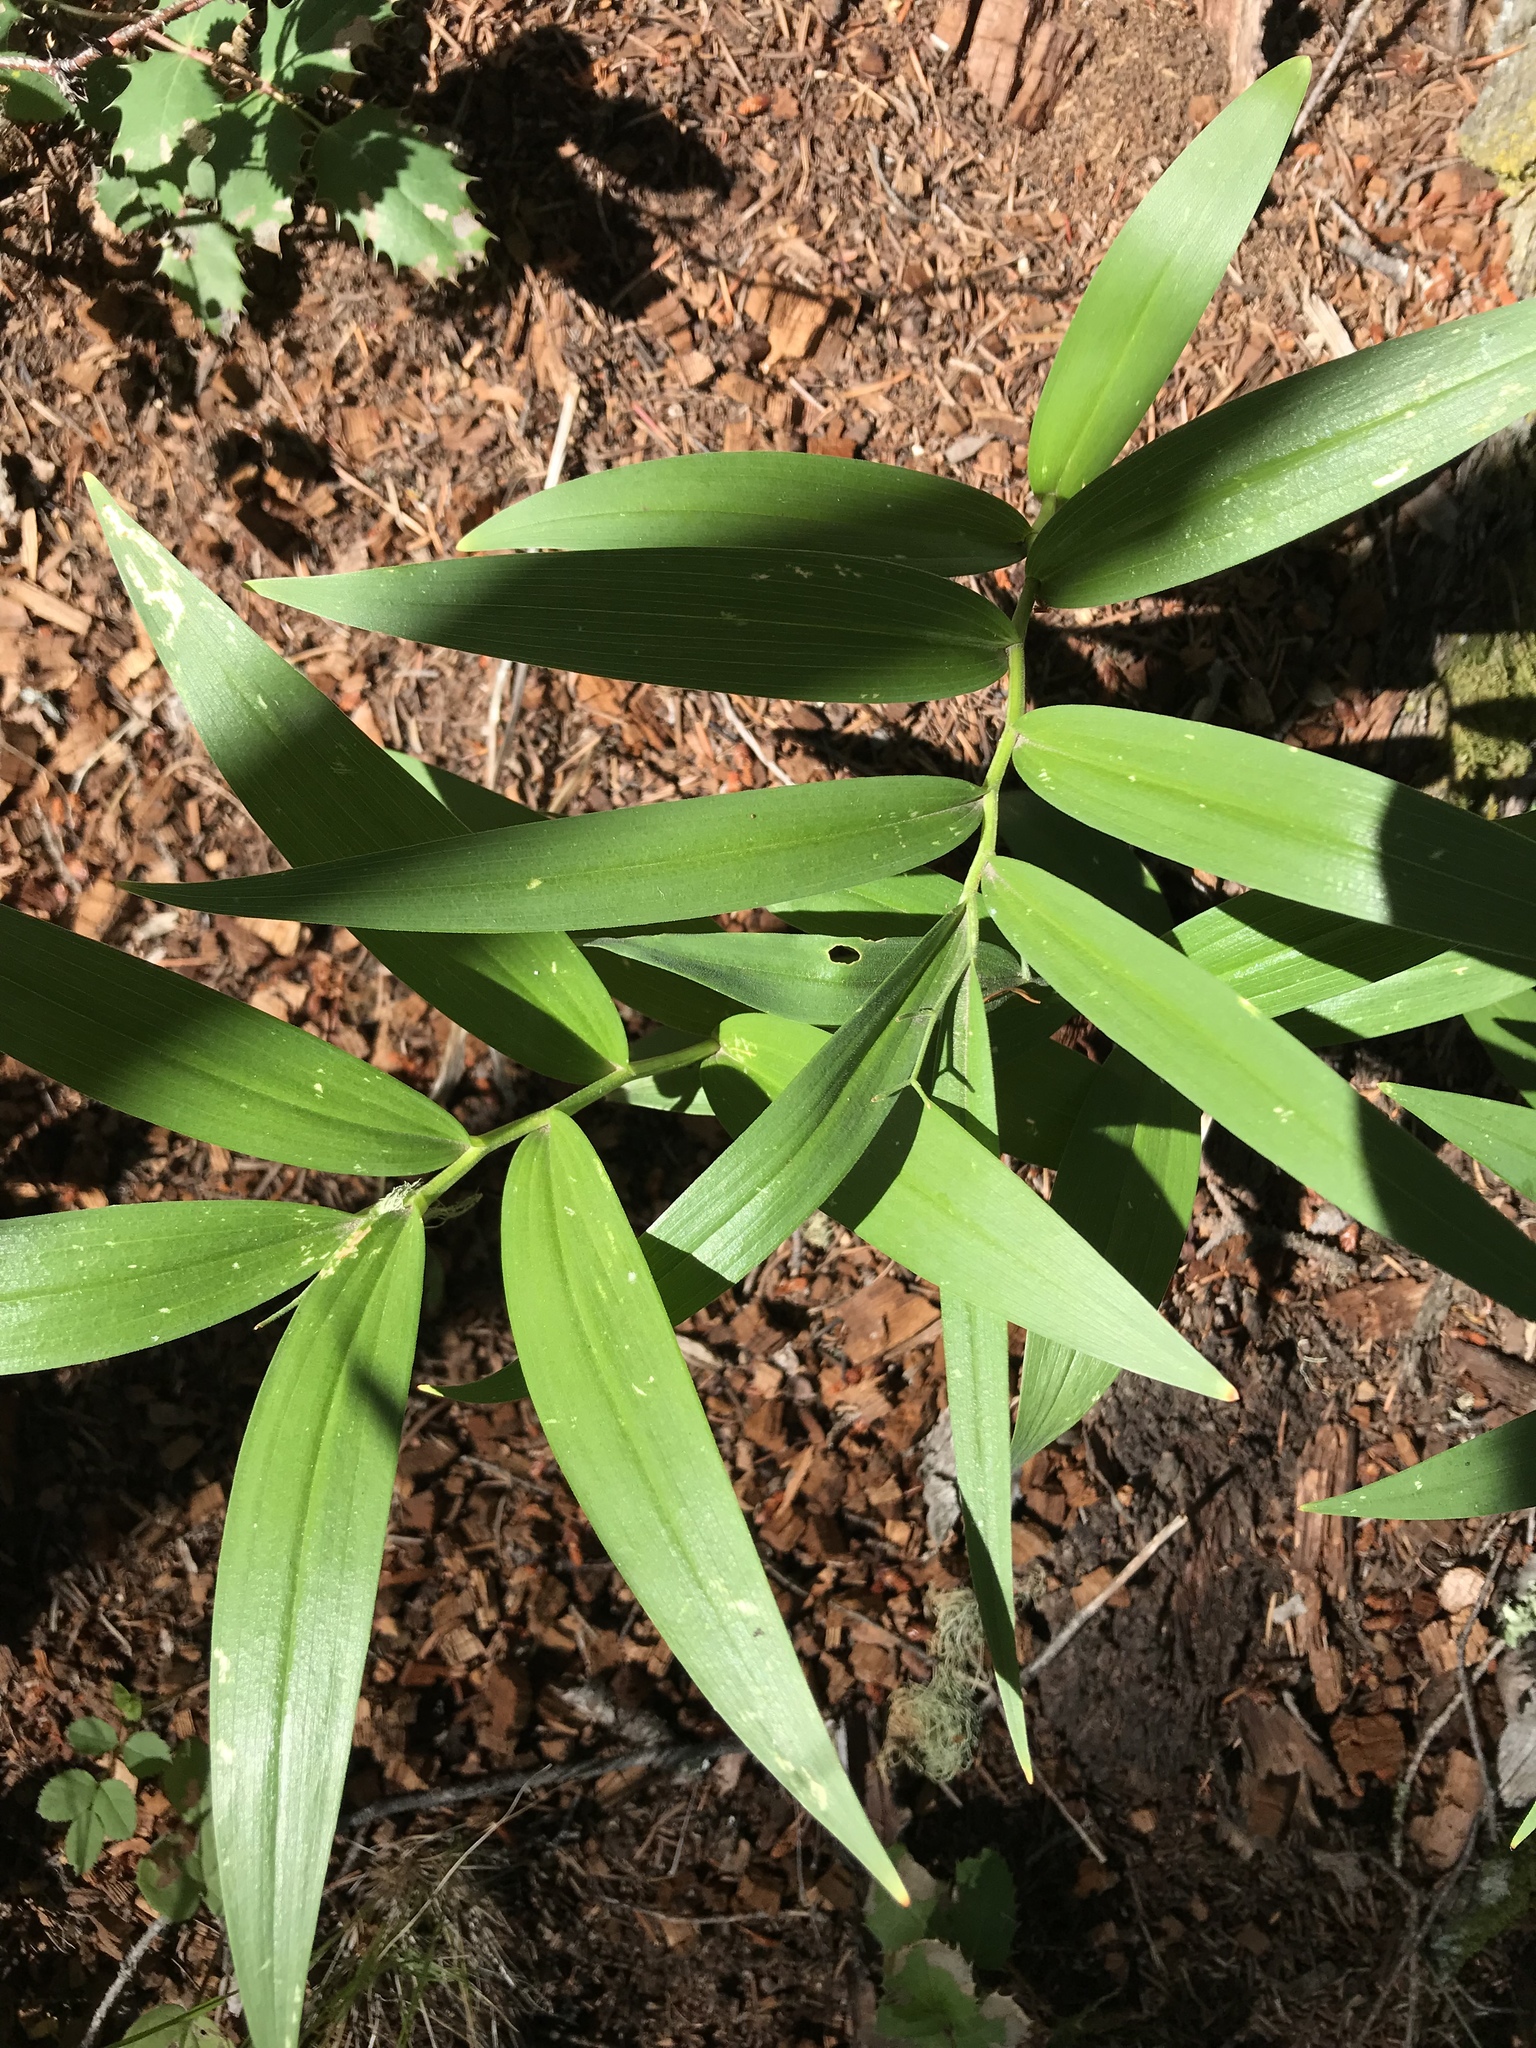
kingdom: Plantae
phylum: Tracheophyta
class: Liliopsida
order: Asparagales
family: Asparagaceae
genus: Maianthemum
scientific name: Maianthemum stellatum
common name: Little false solomon's seal
